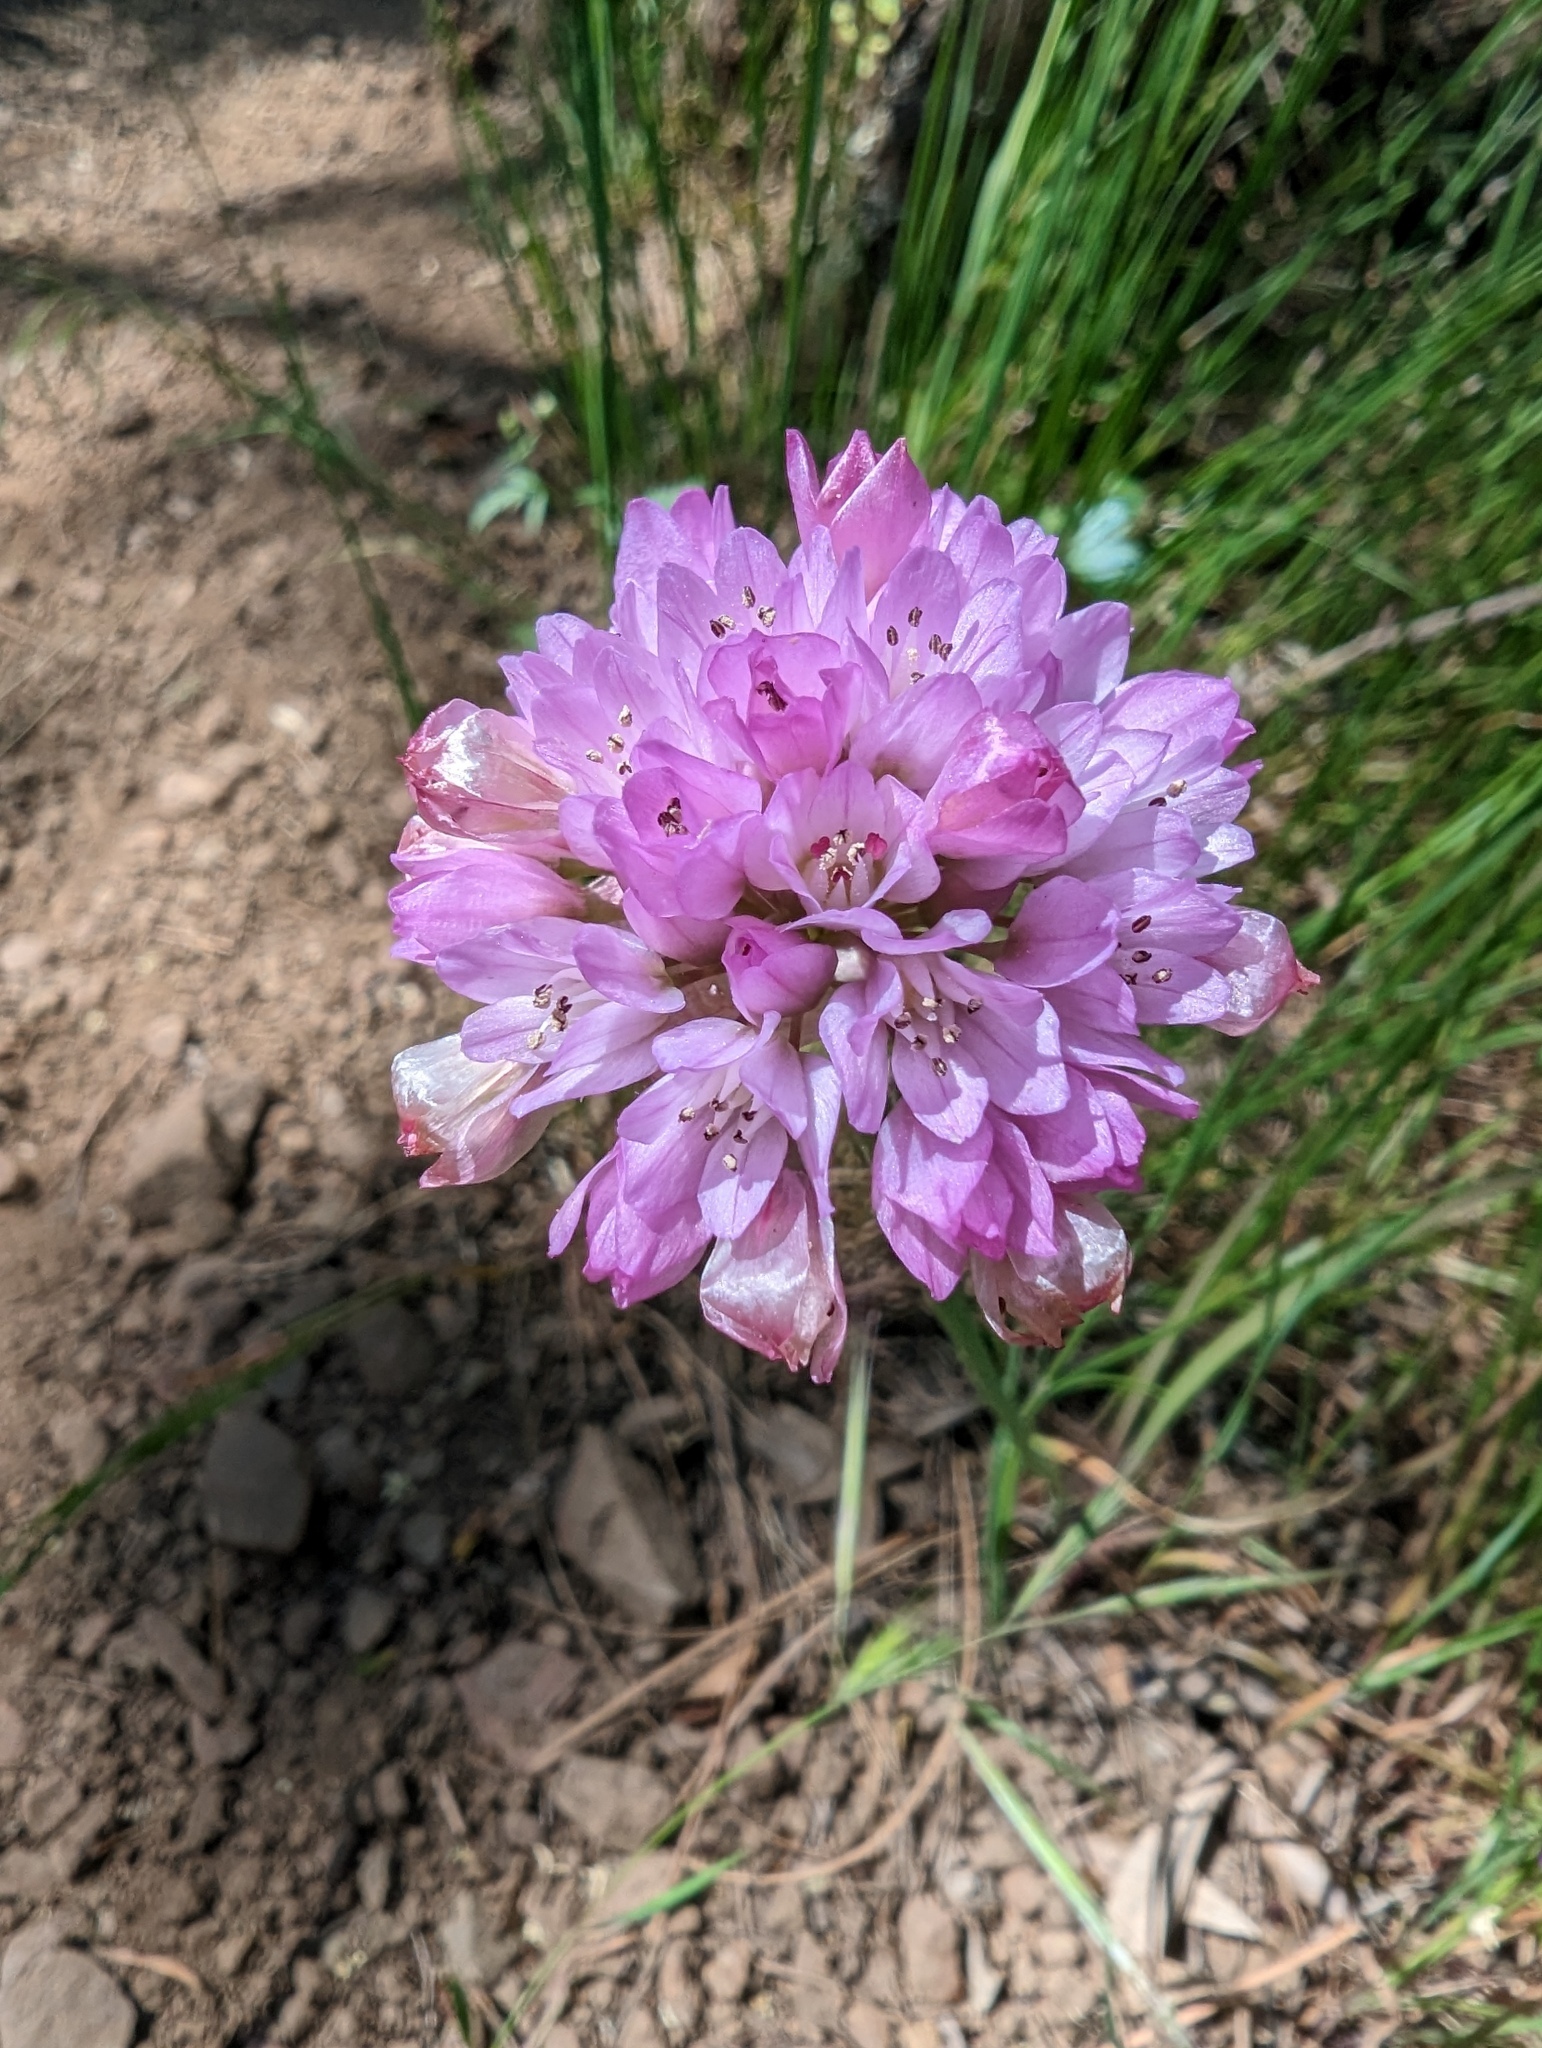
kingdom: Plantae
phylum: Tracheophyta
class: Liliopsida
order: Asparagales
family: Amaryllidaceae
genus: Allium
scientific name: Allium serra
